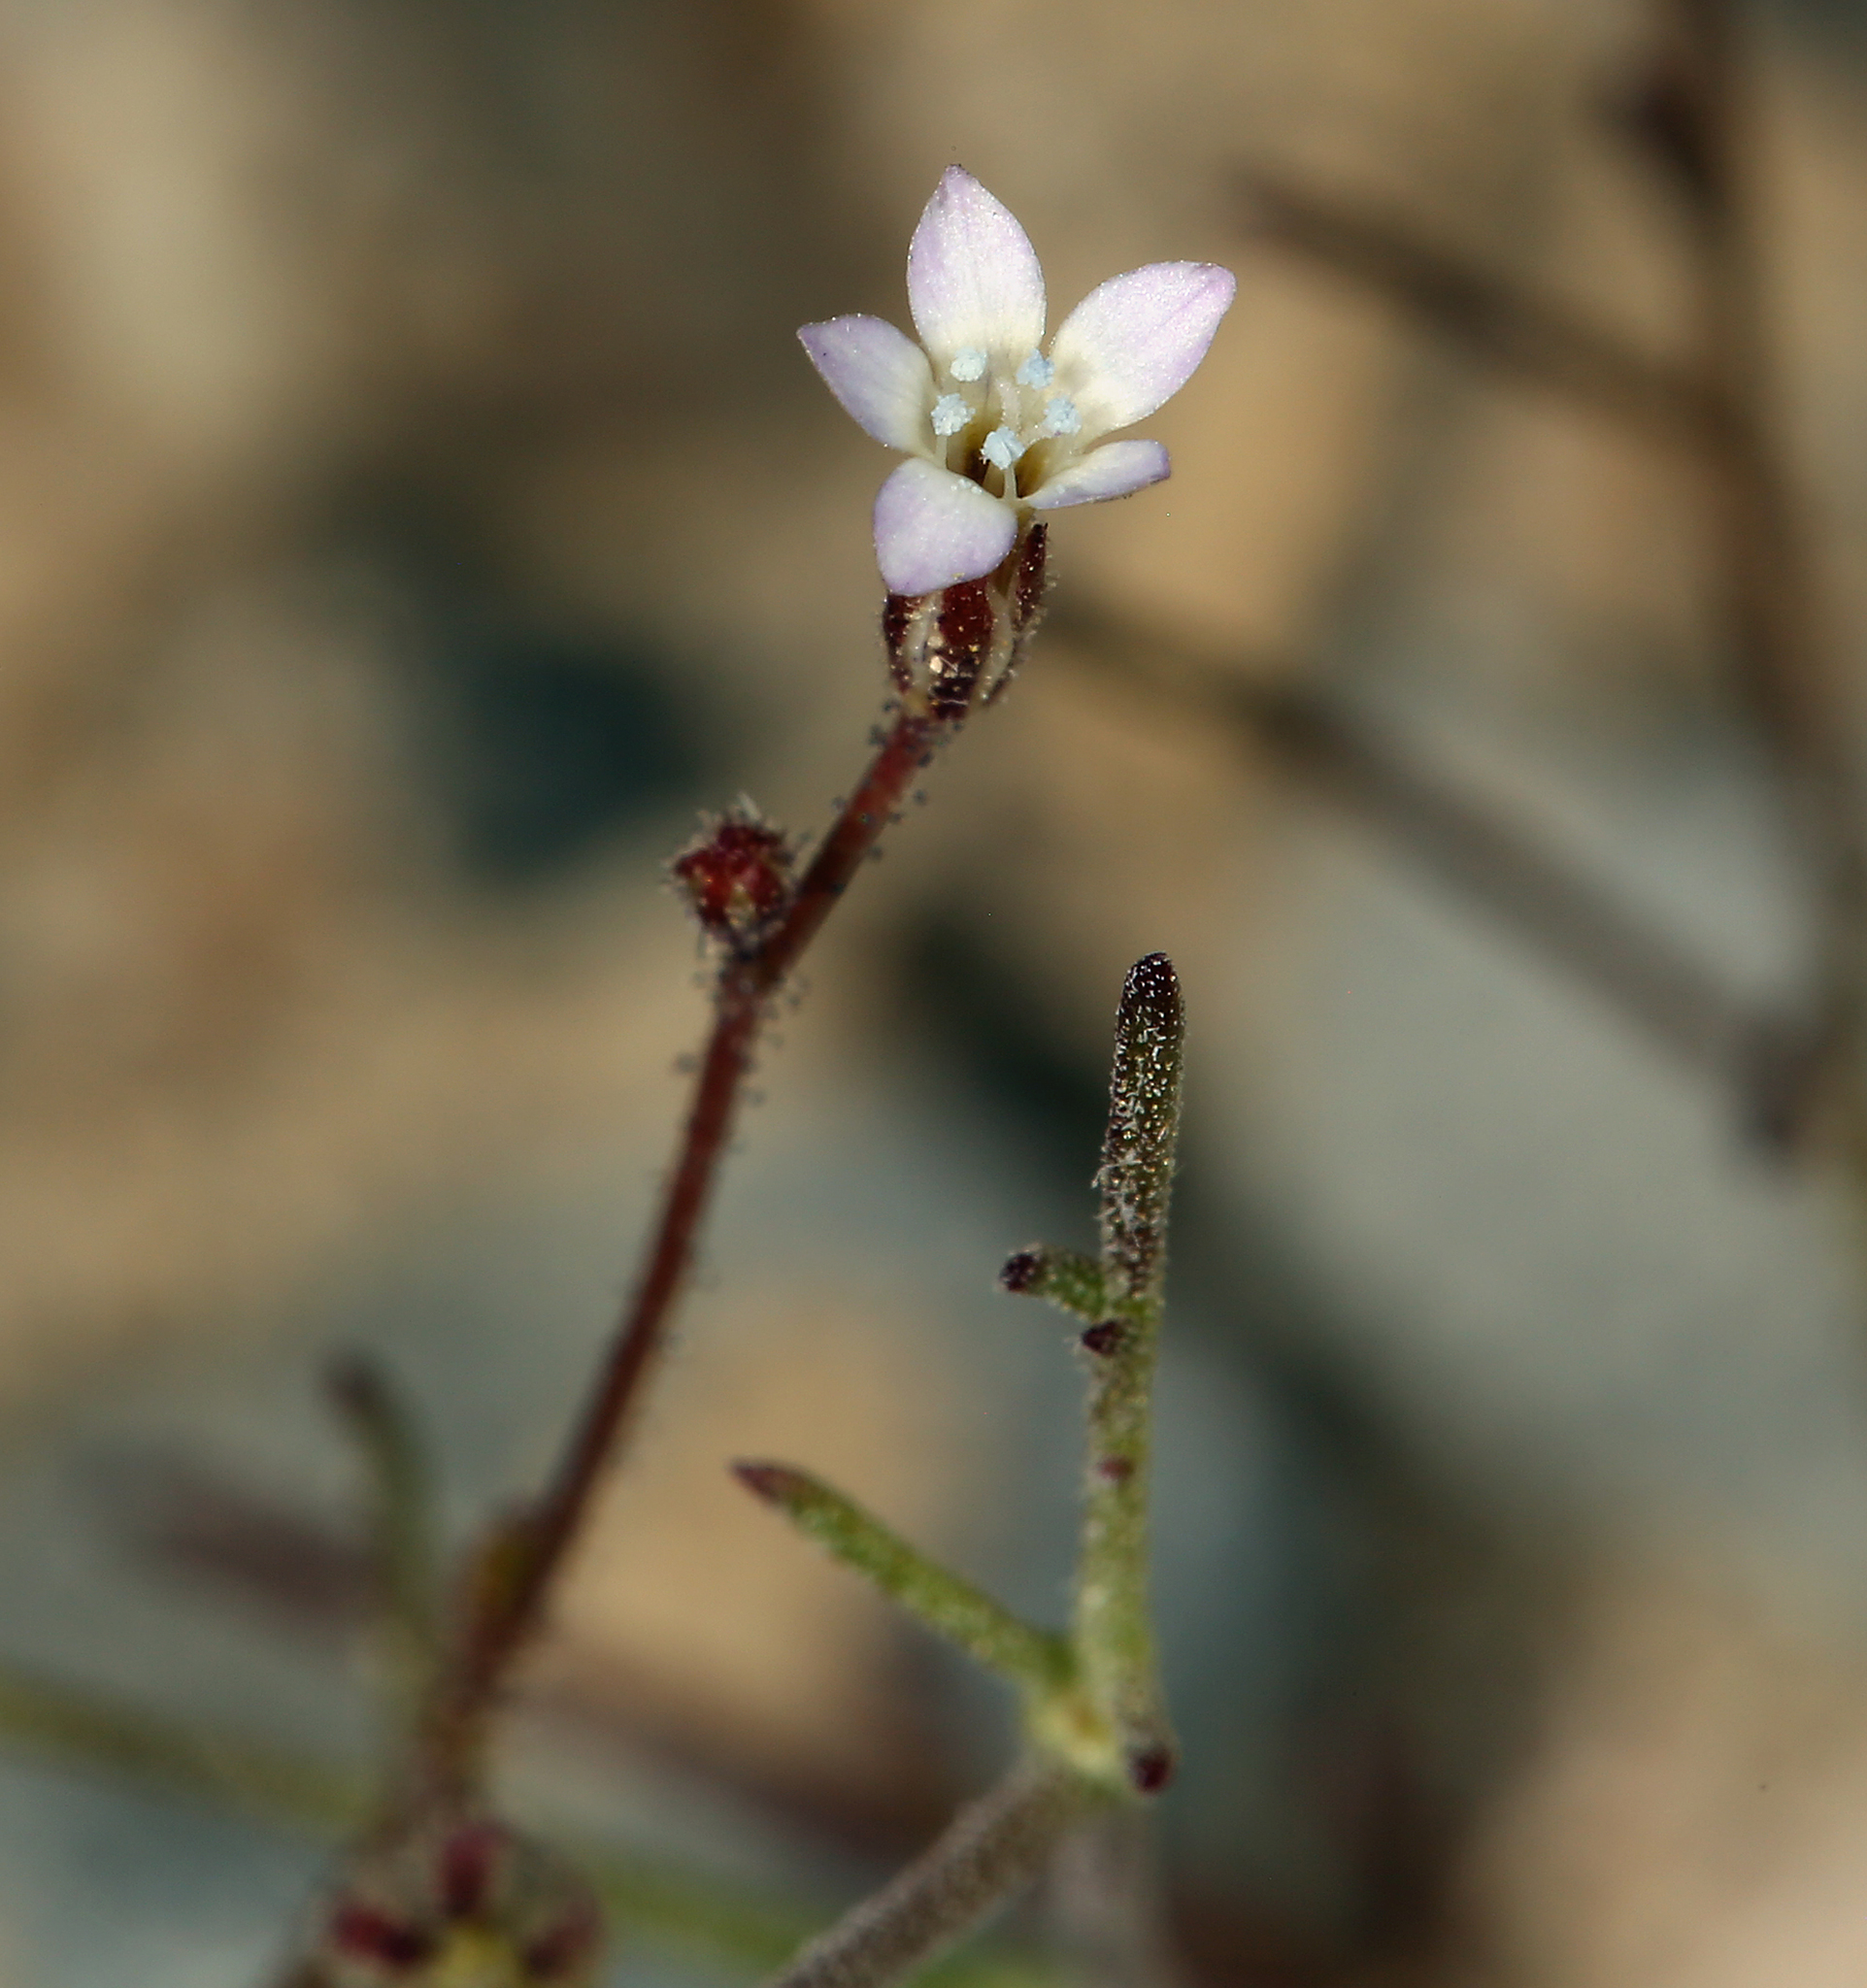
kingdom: Plantae
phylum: Tracheophyta
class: Magnoliopsida
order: Ericales
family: Polemoniaceae
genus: Gilia
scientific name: Gilia clokeyi
